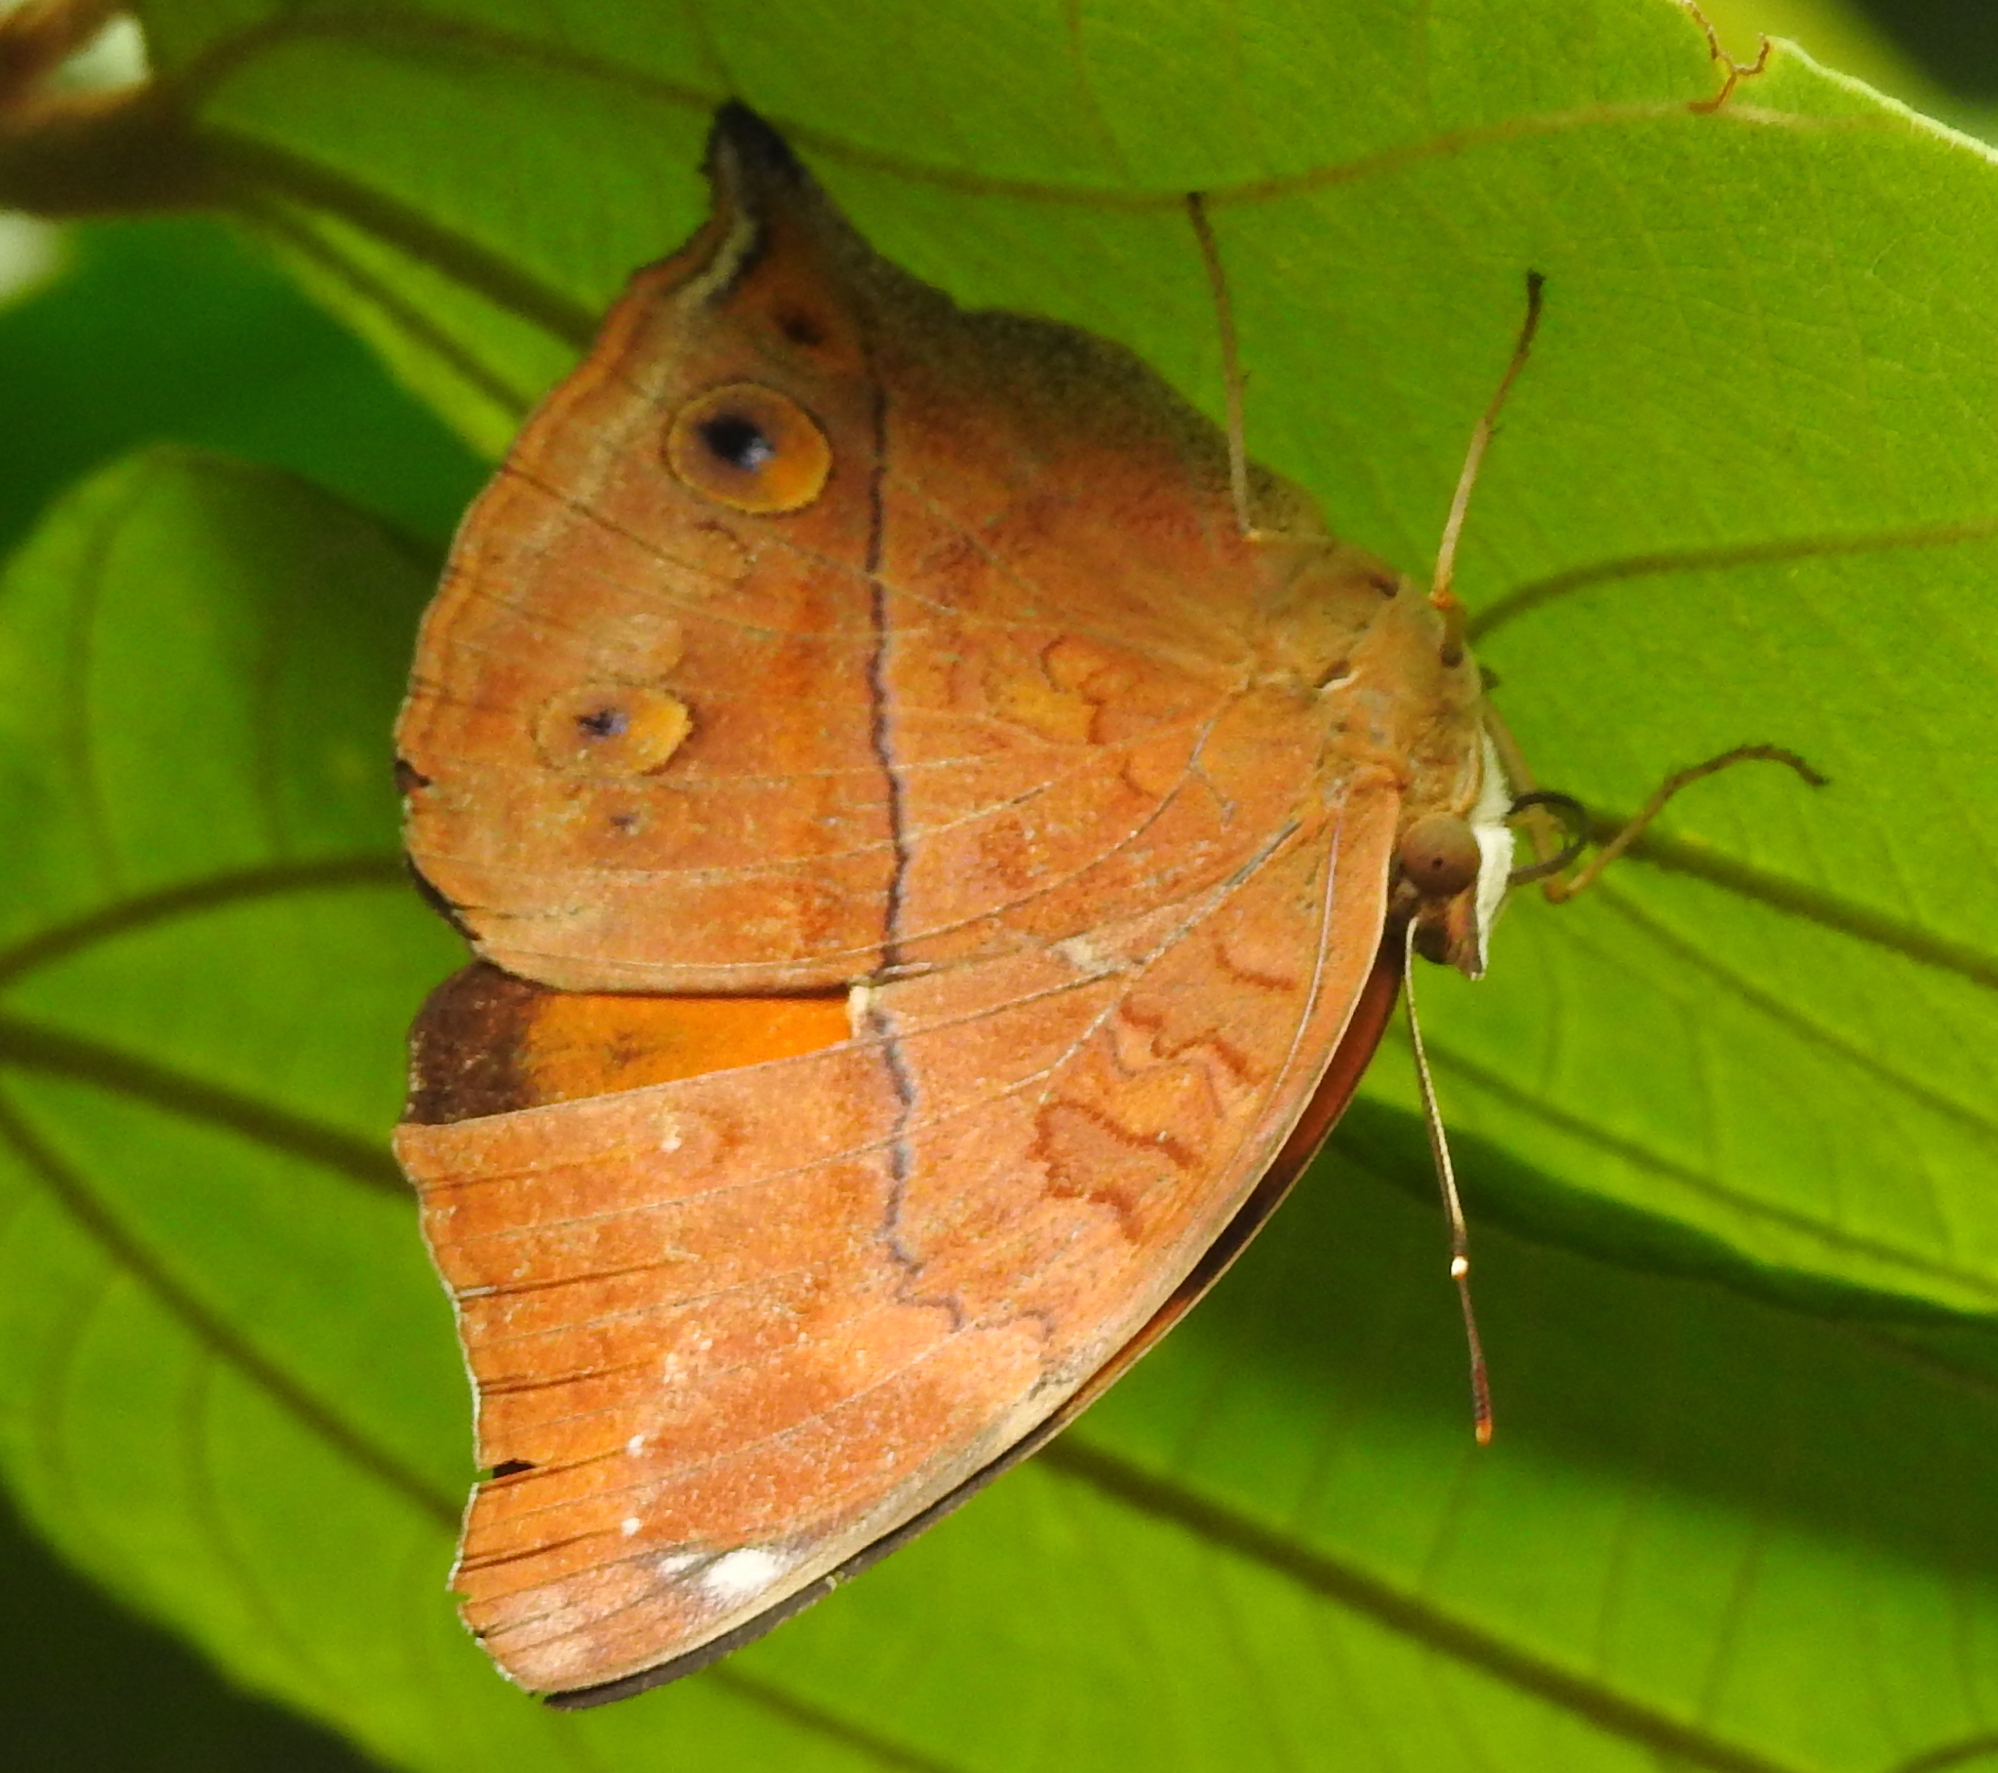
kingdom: Animalia
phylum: Arthropoda
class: Insecta
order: Lepidoptera
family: Nymphalidae
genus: Doleschallia
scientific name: Doleschallia bisaltide
